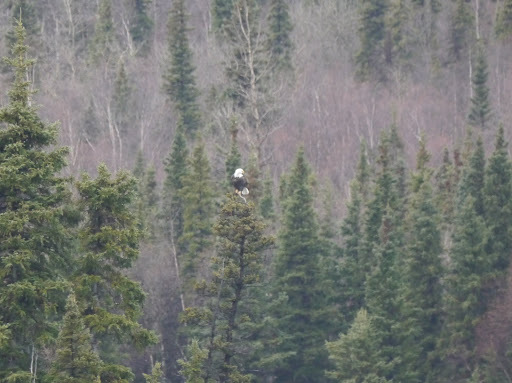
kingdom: Animalia
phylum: Chordata
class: Aves
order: Accipitriformes
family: Accipitridae
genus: Haliaeetus
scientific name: Haliaeetus leucocephalus
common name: Bald eagle
